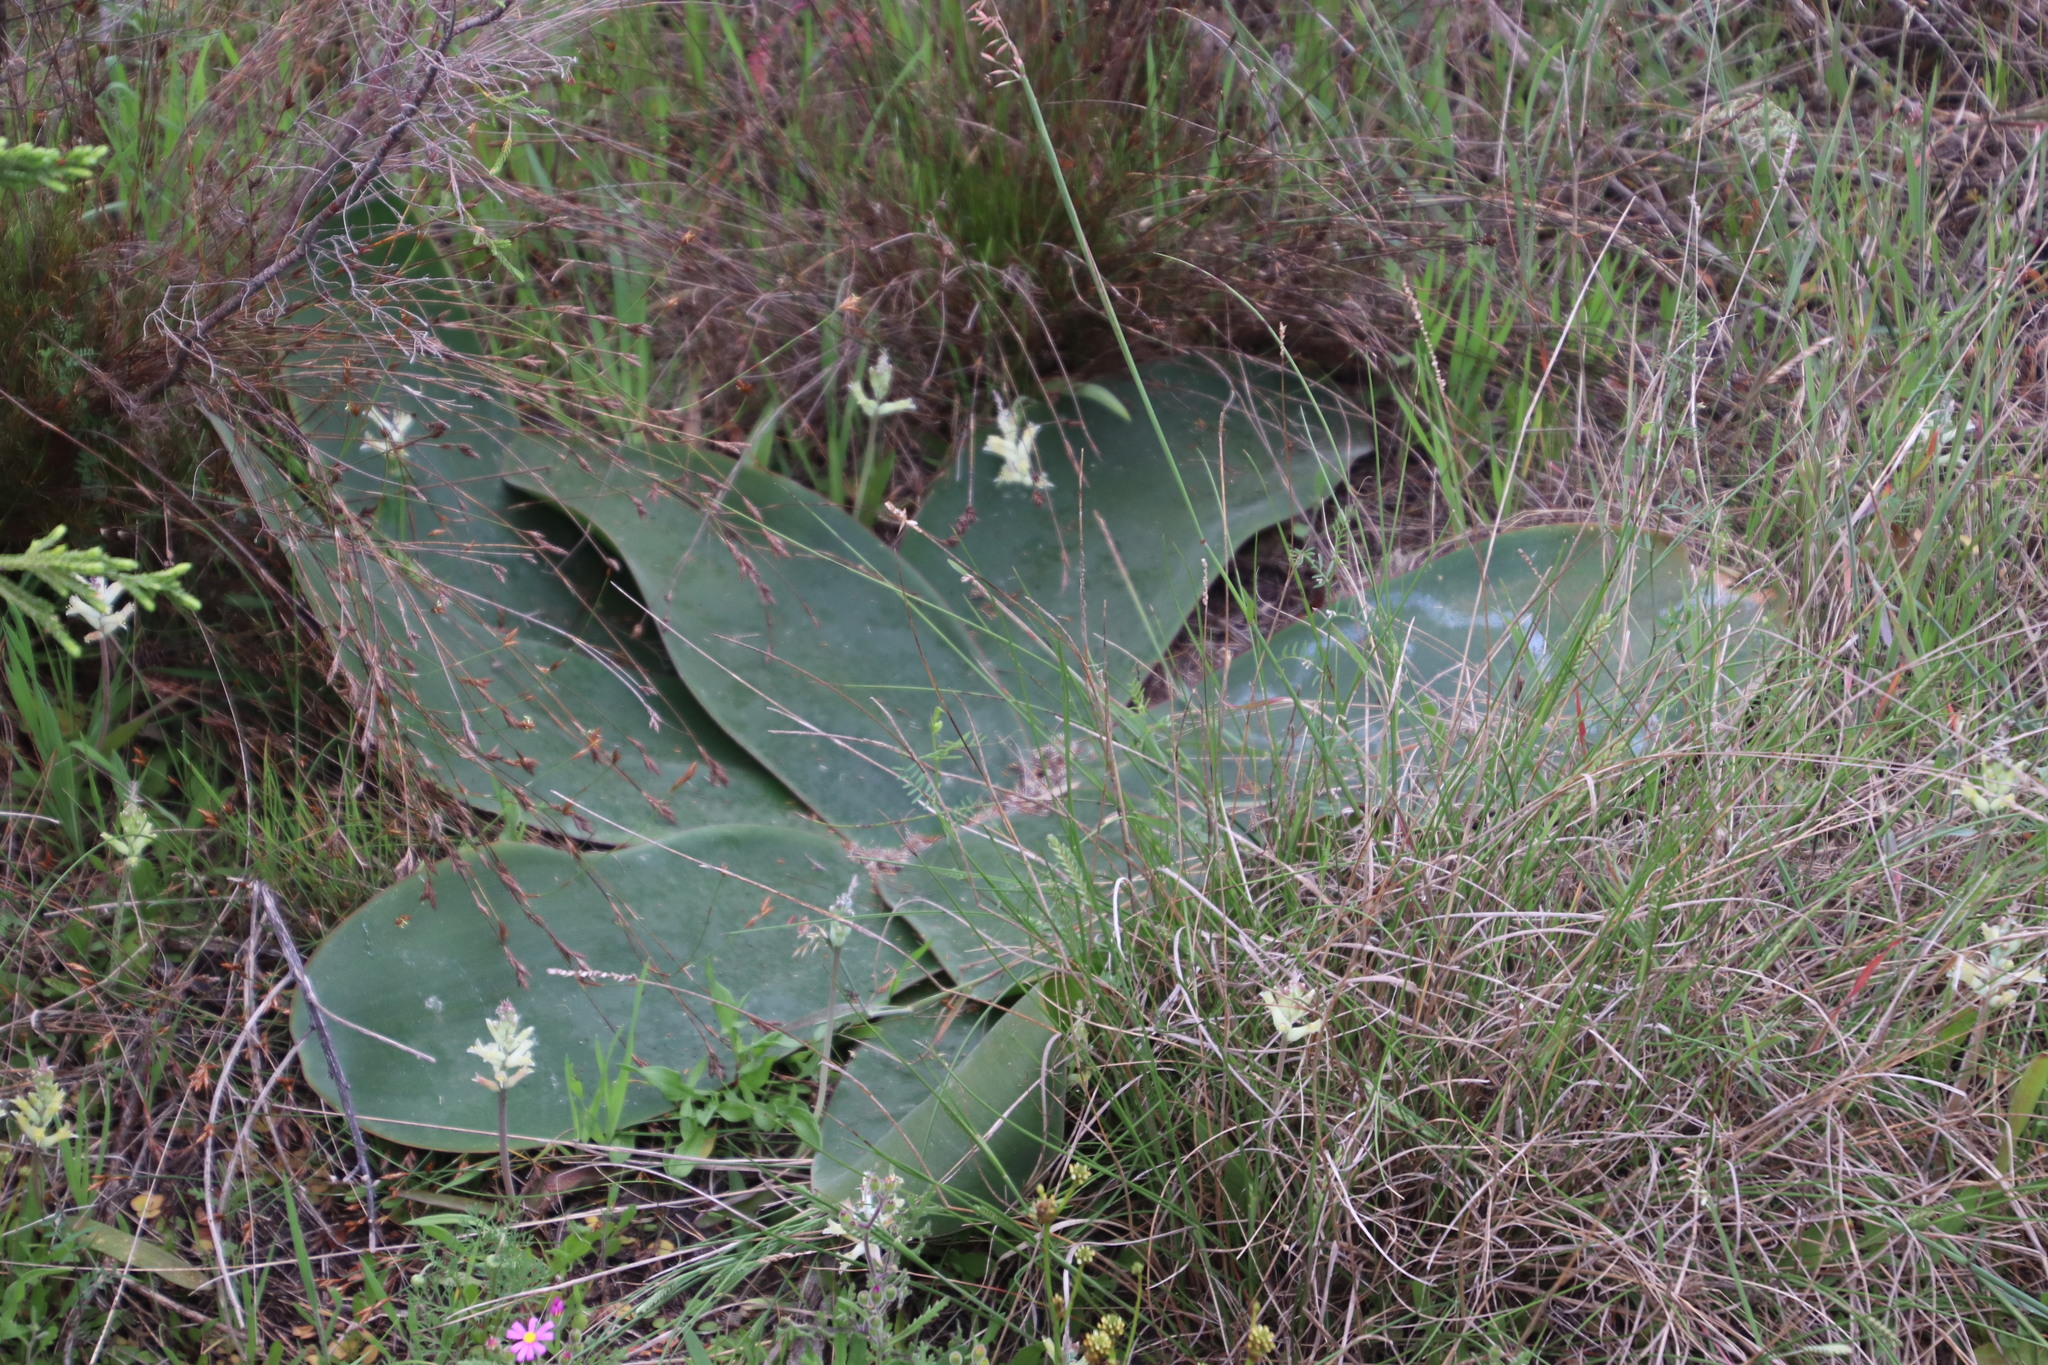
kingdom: Plantae
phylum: Tracheophyta
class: Liliopsida
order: Asparagales
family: Amaryllidaceae
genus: Brunsvigia
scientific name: Brunsvigia orientalis
